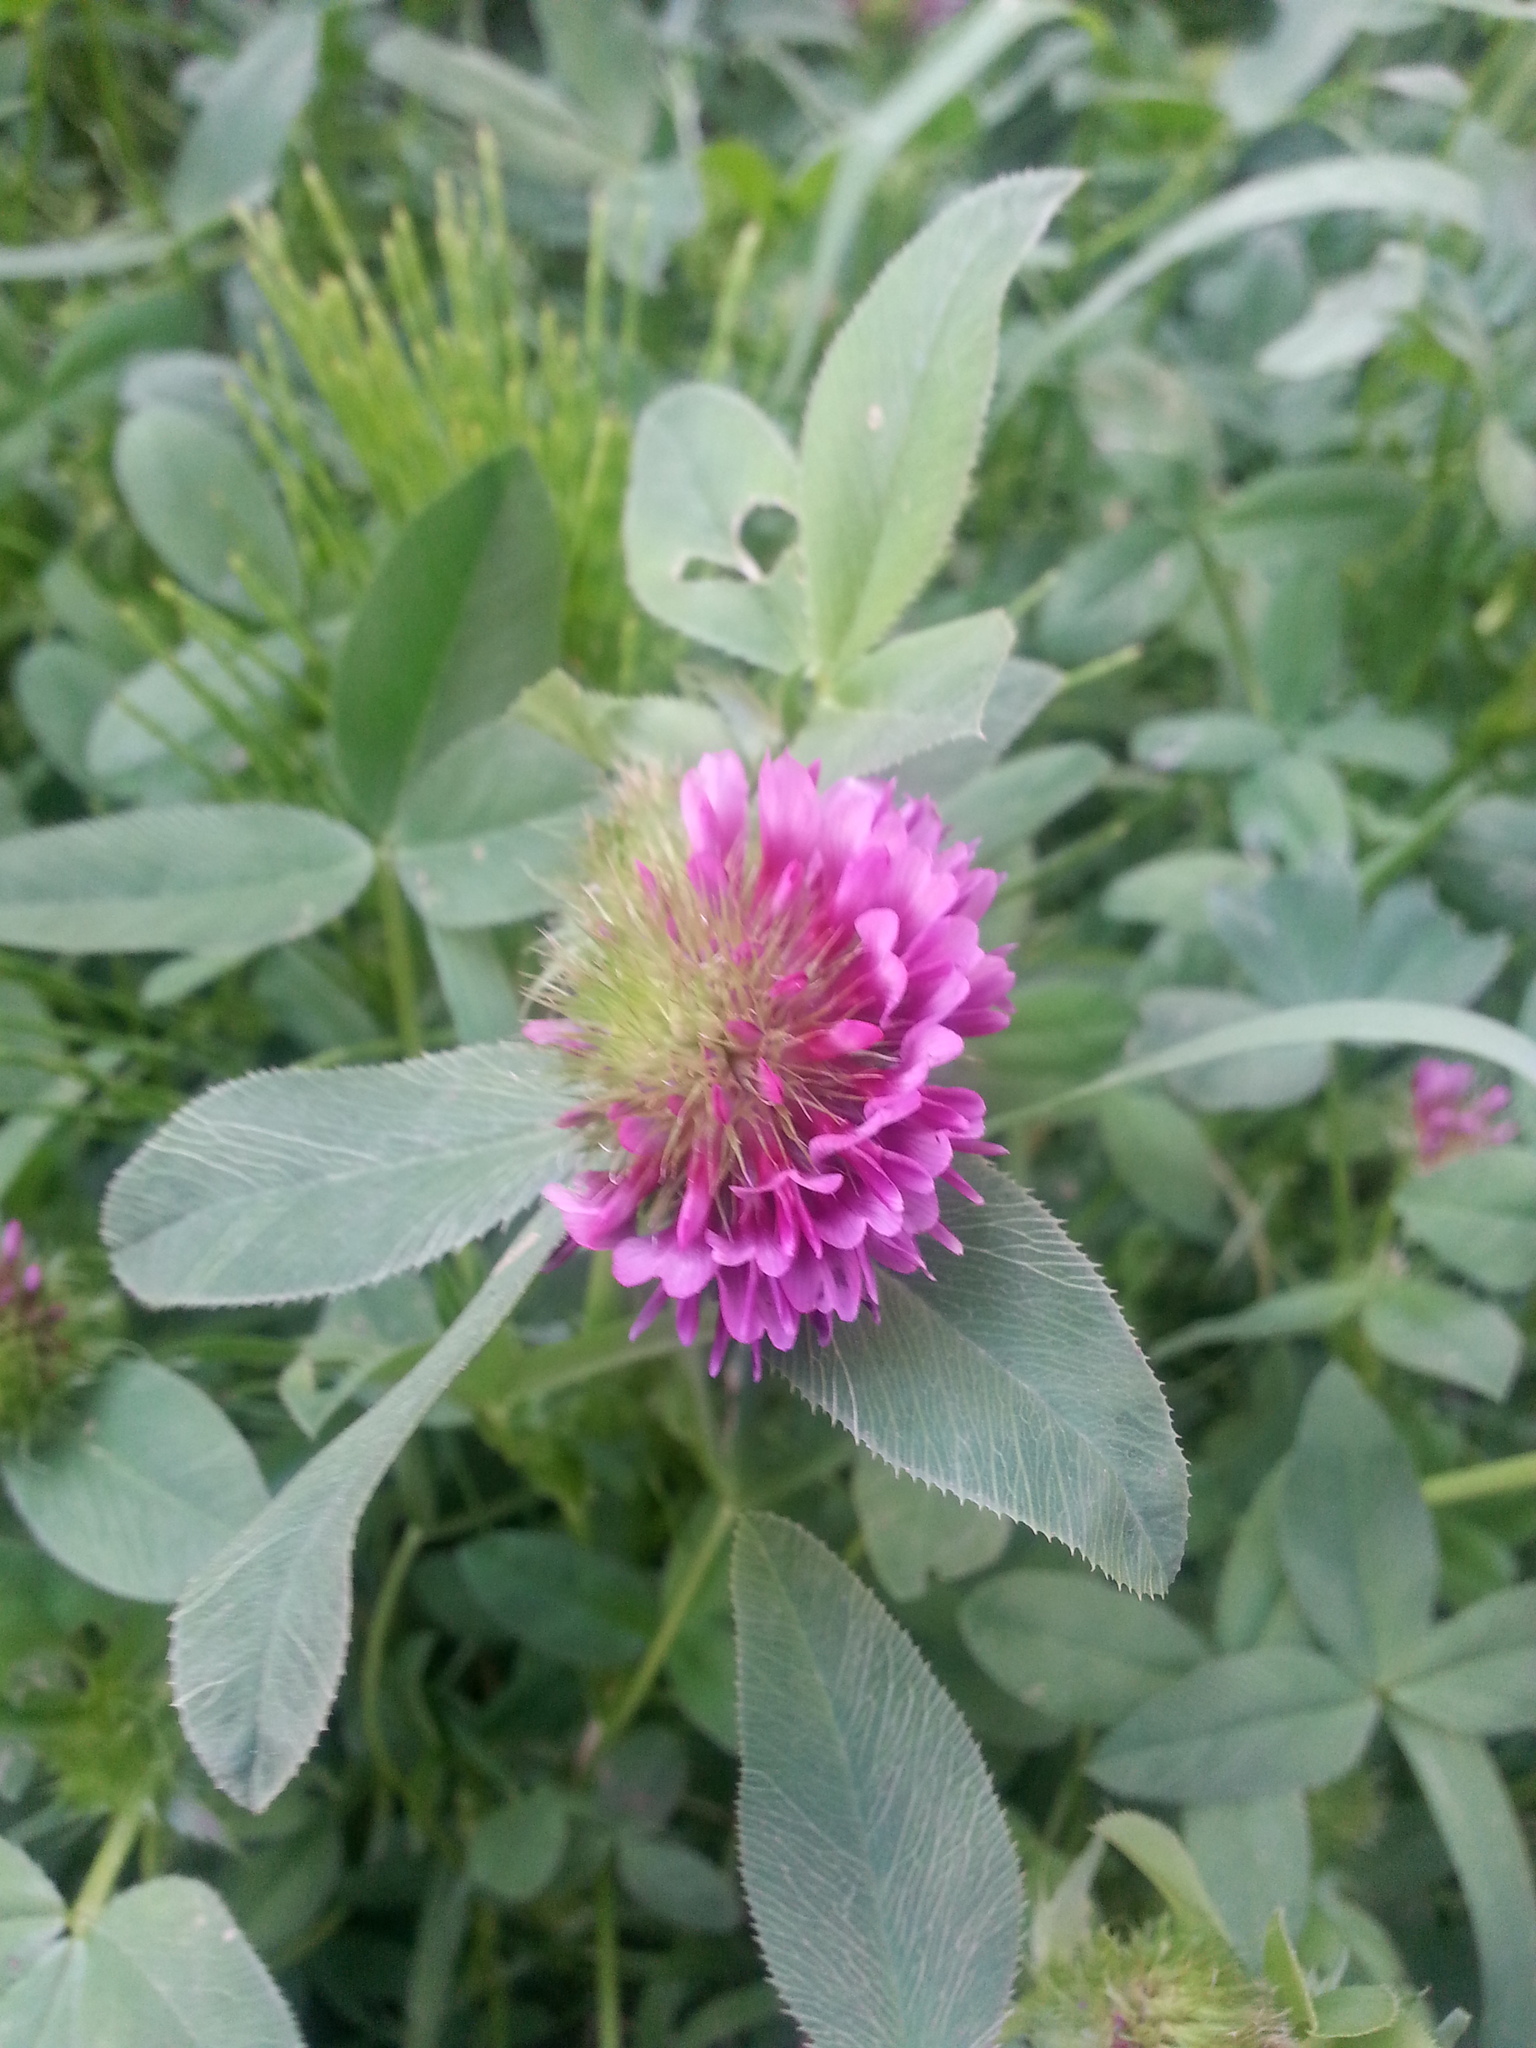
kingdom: Plantae
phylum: Tracheophyta
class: Magnoliopsida
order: Fabales
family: Fabaceae
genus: Trifolium
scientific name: Trifolium wormskioldii
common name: Springbank clover
